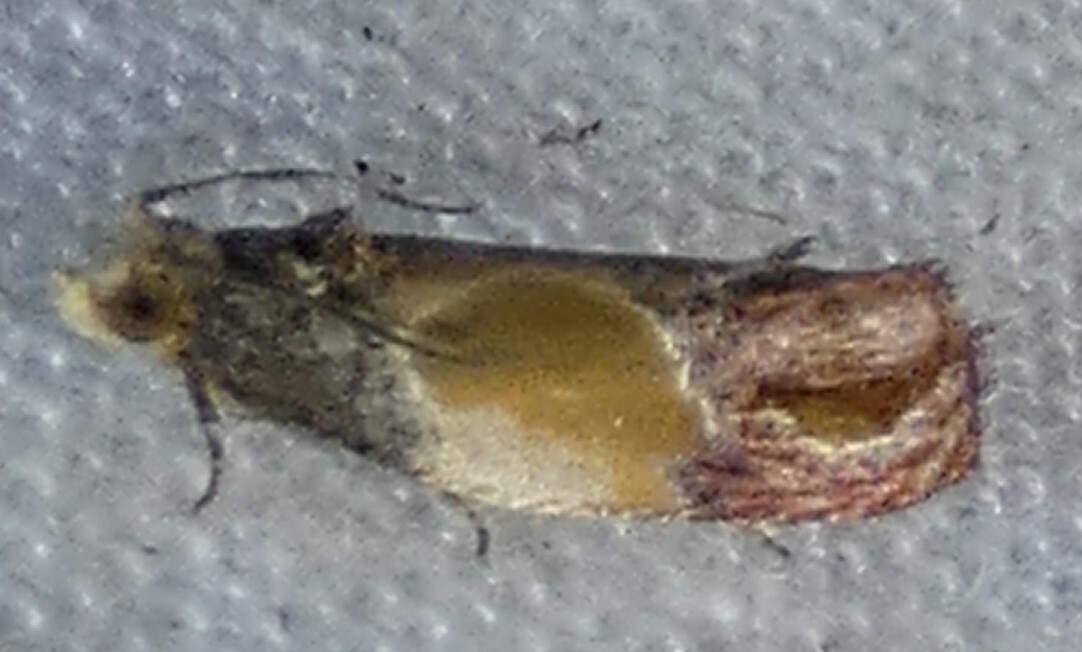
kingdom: Animalia
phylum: Arthropoda
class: Insecta
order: Lepidoptera
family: Tortricidae
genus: Eumarozia
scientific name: Eumarozia malachitana
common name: Sculptured moth
